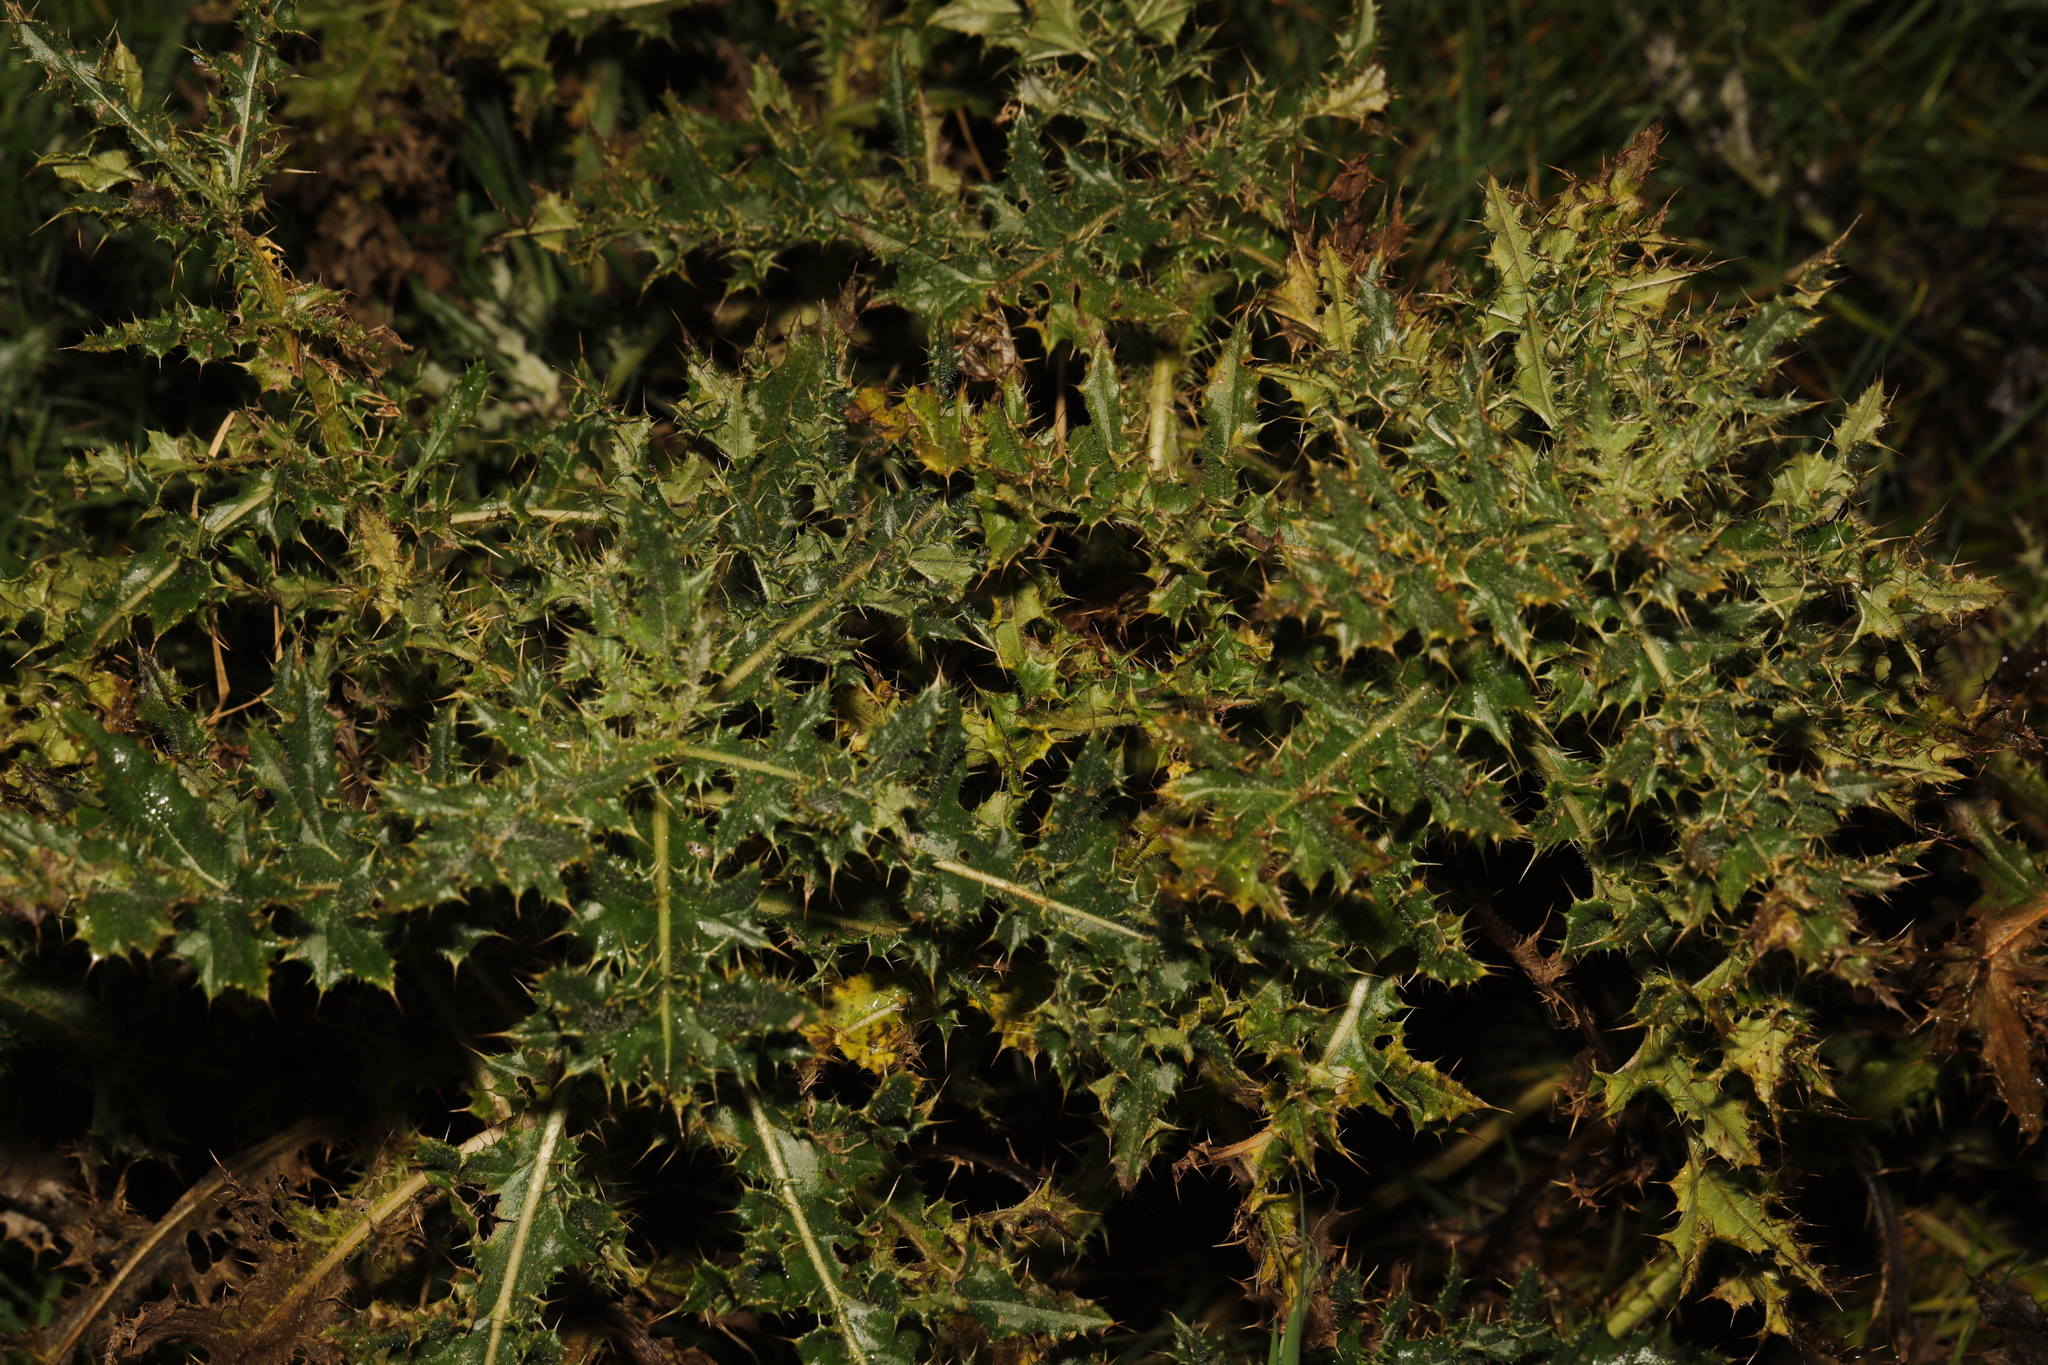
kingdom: Plantae
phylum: Tracheophyta
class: Magnoliopsida
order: Asterales
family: Asteraceae
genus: Cirsium
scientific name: Cirsium arvense
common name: Creeping thistle
